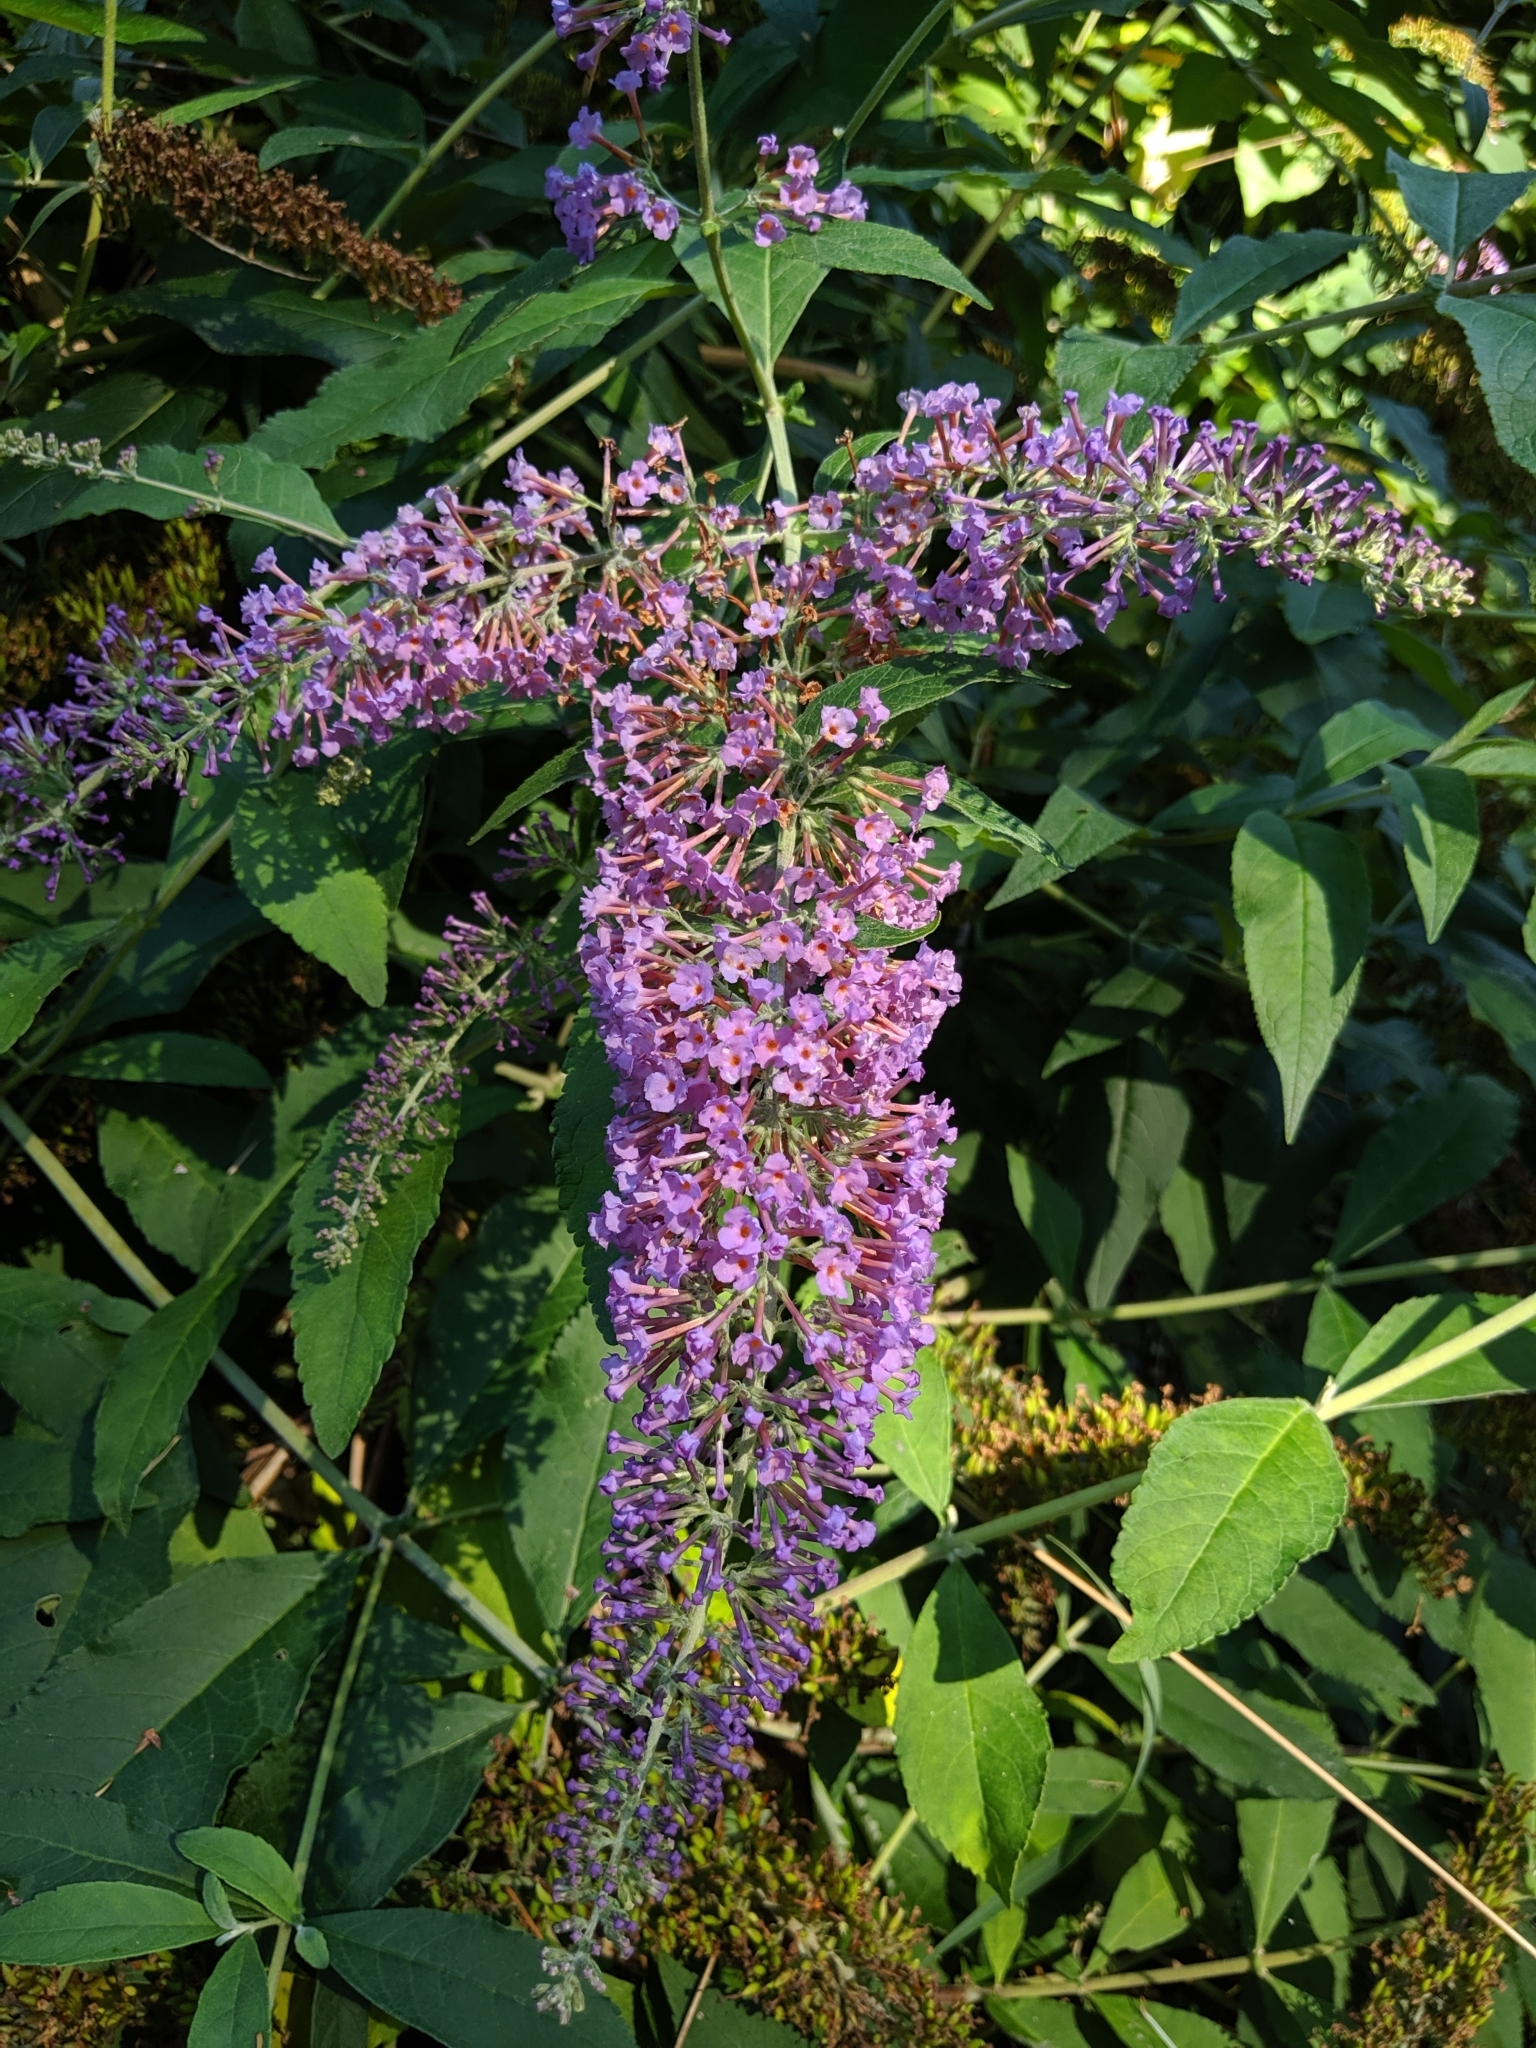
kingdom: Plantae
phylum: Tracheophyta
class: Magnoliopsida
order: Lamiales
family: Scrophulariaceae
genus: Buddleja
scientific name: Buddleja davidii
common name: Butterfly-bush
